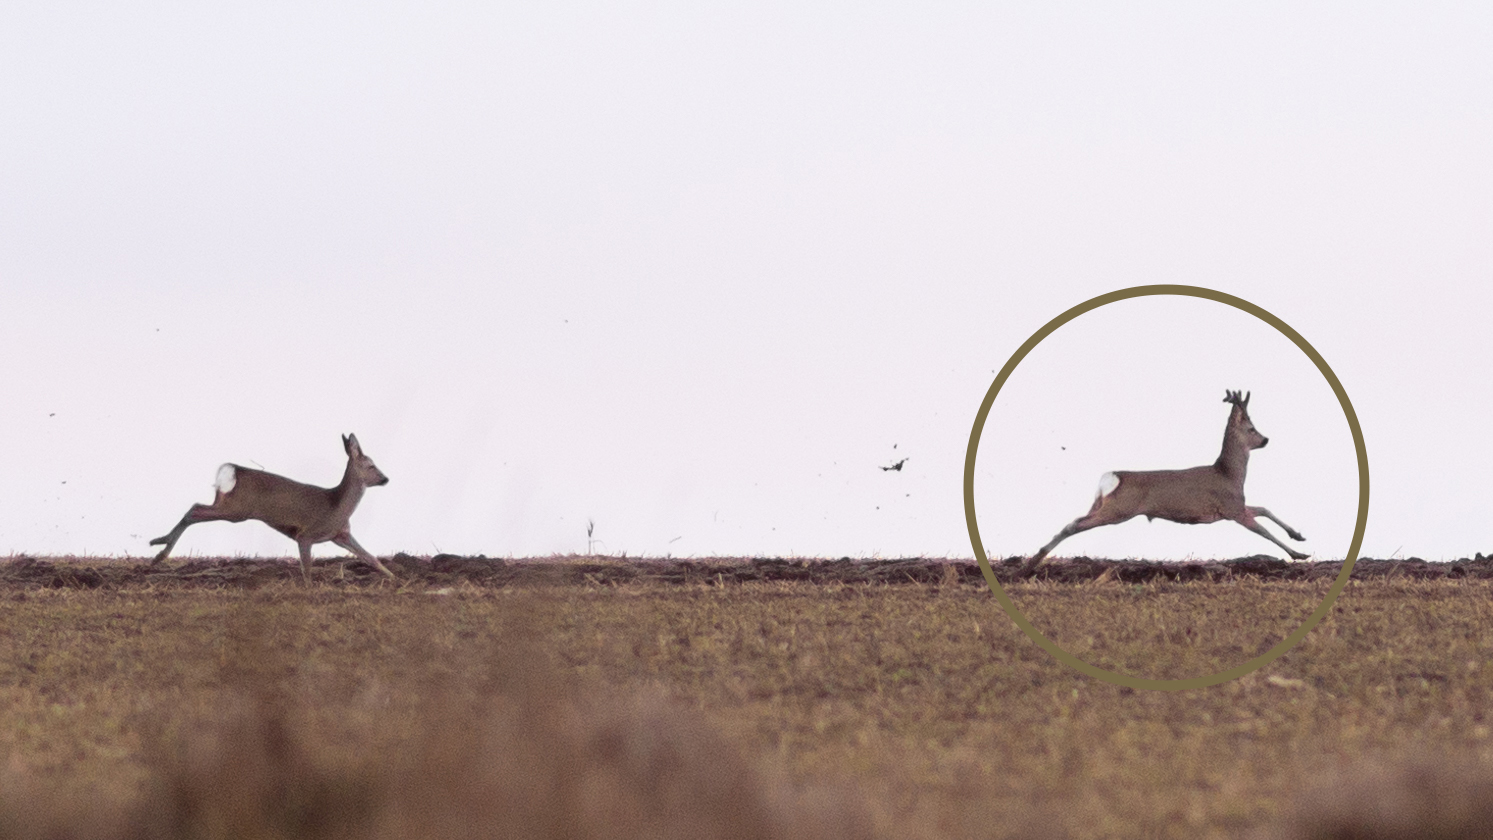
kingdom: Animalia
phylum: Chordata
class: Mammalia
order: Artiodactyla
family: Cervidae
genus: Capreolus
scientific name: Capreolus capreolus
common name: Western roe deer
